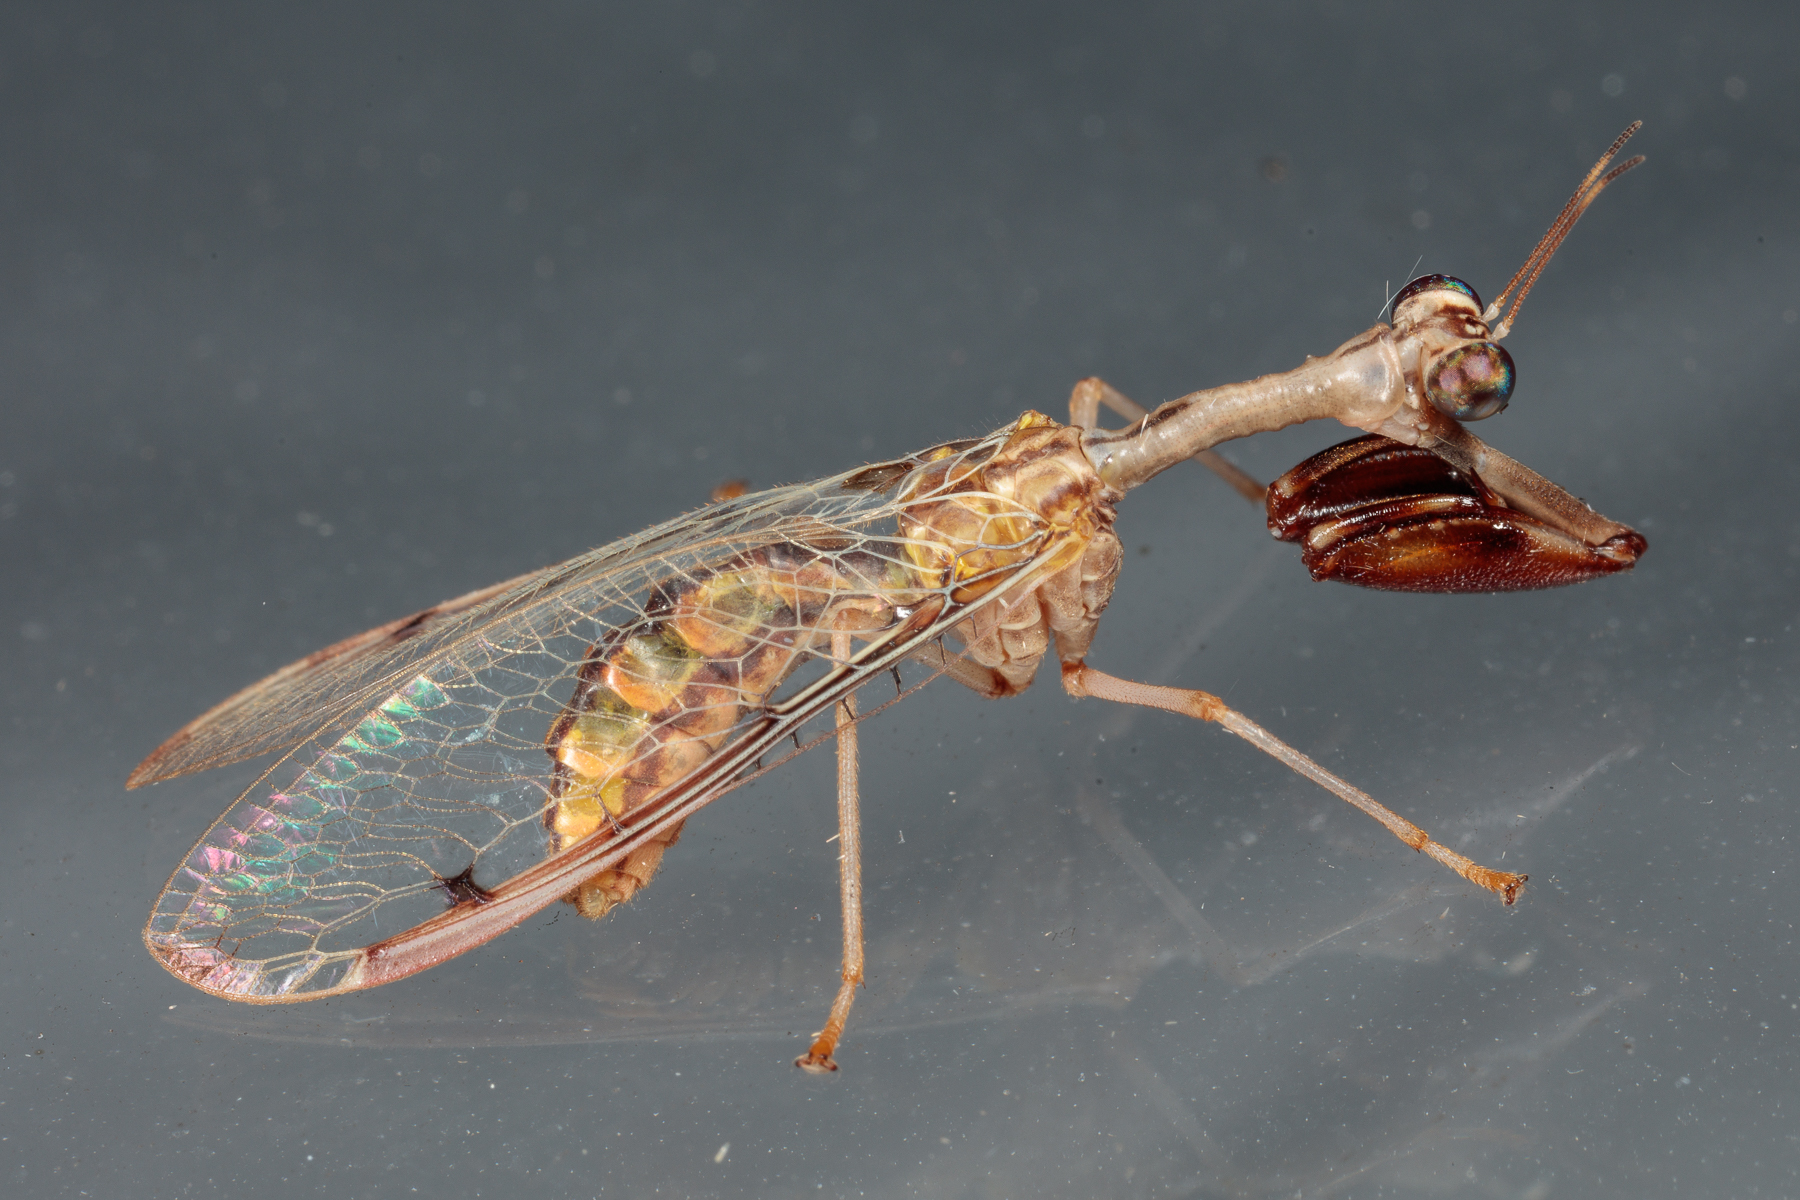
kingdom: Animalia
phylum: Arthropoda
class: Insecta
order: Neuroptera
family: Mantispidae
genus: Dicromantispa
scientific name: Dicromantispa interrupta
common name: Four-spotted mantidfly
